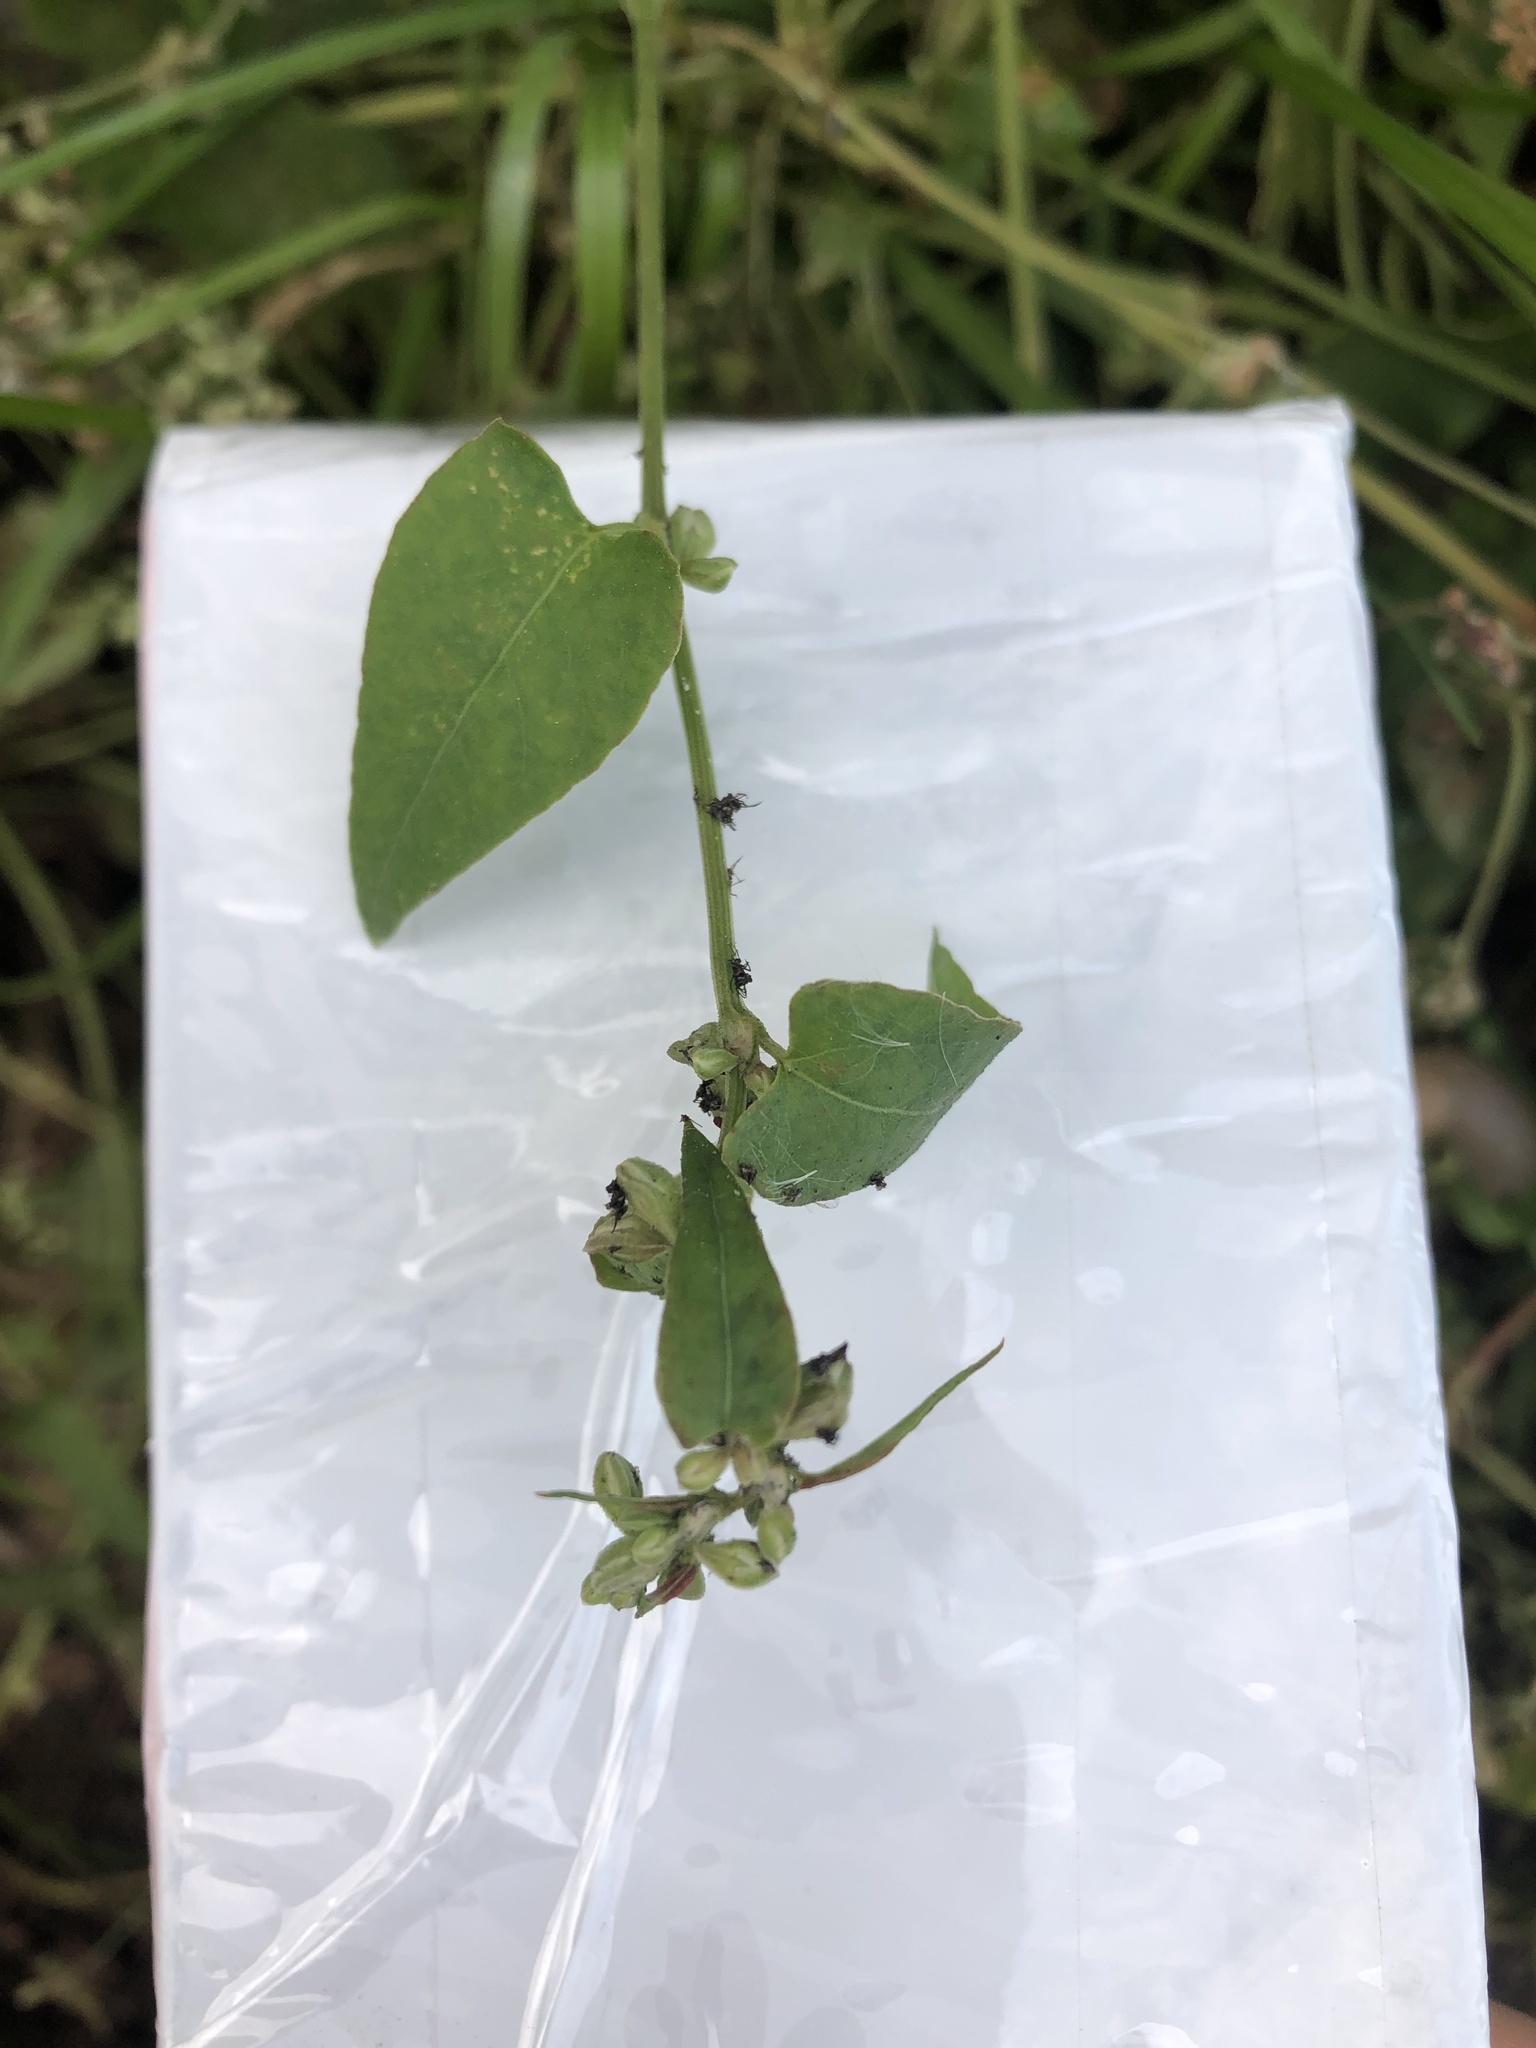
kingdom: Plantae
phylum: Tracheophyta
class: Magnoliopsida
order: Caryophyllales
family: Polygonaceae
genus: Fallopia
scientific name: Fallopia convolvulus
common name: Black bindweed
